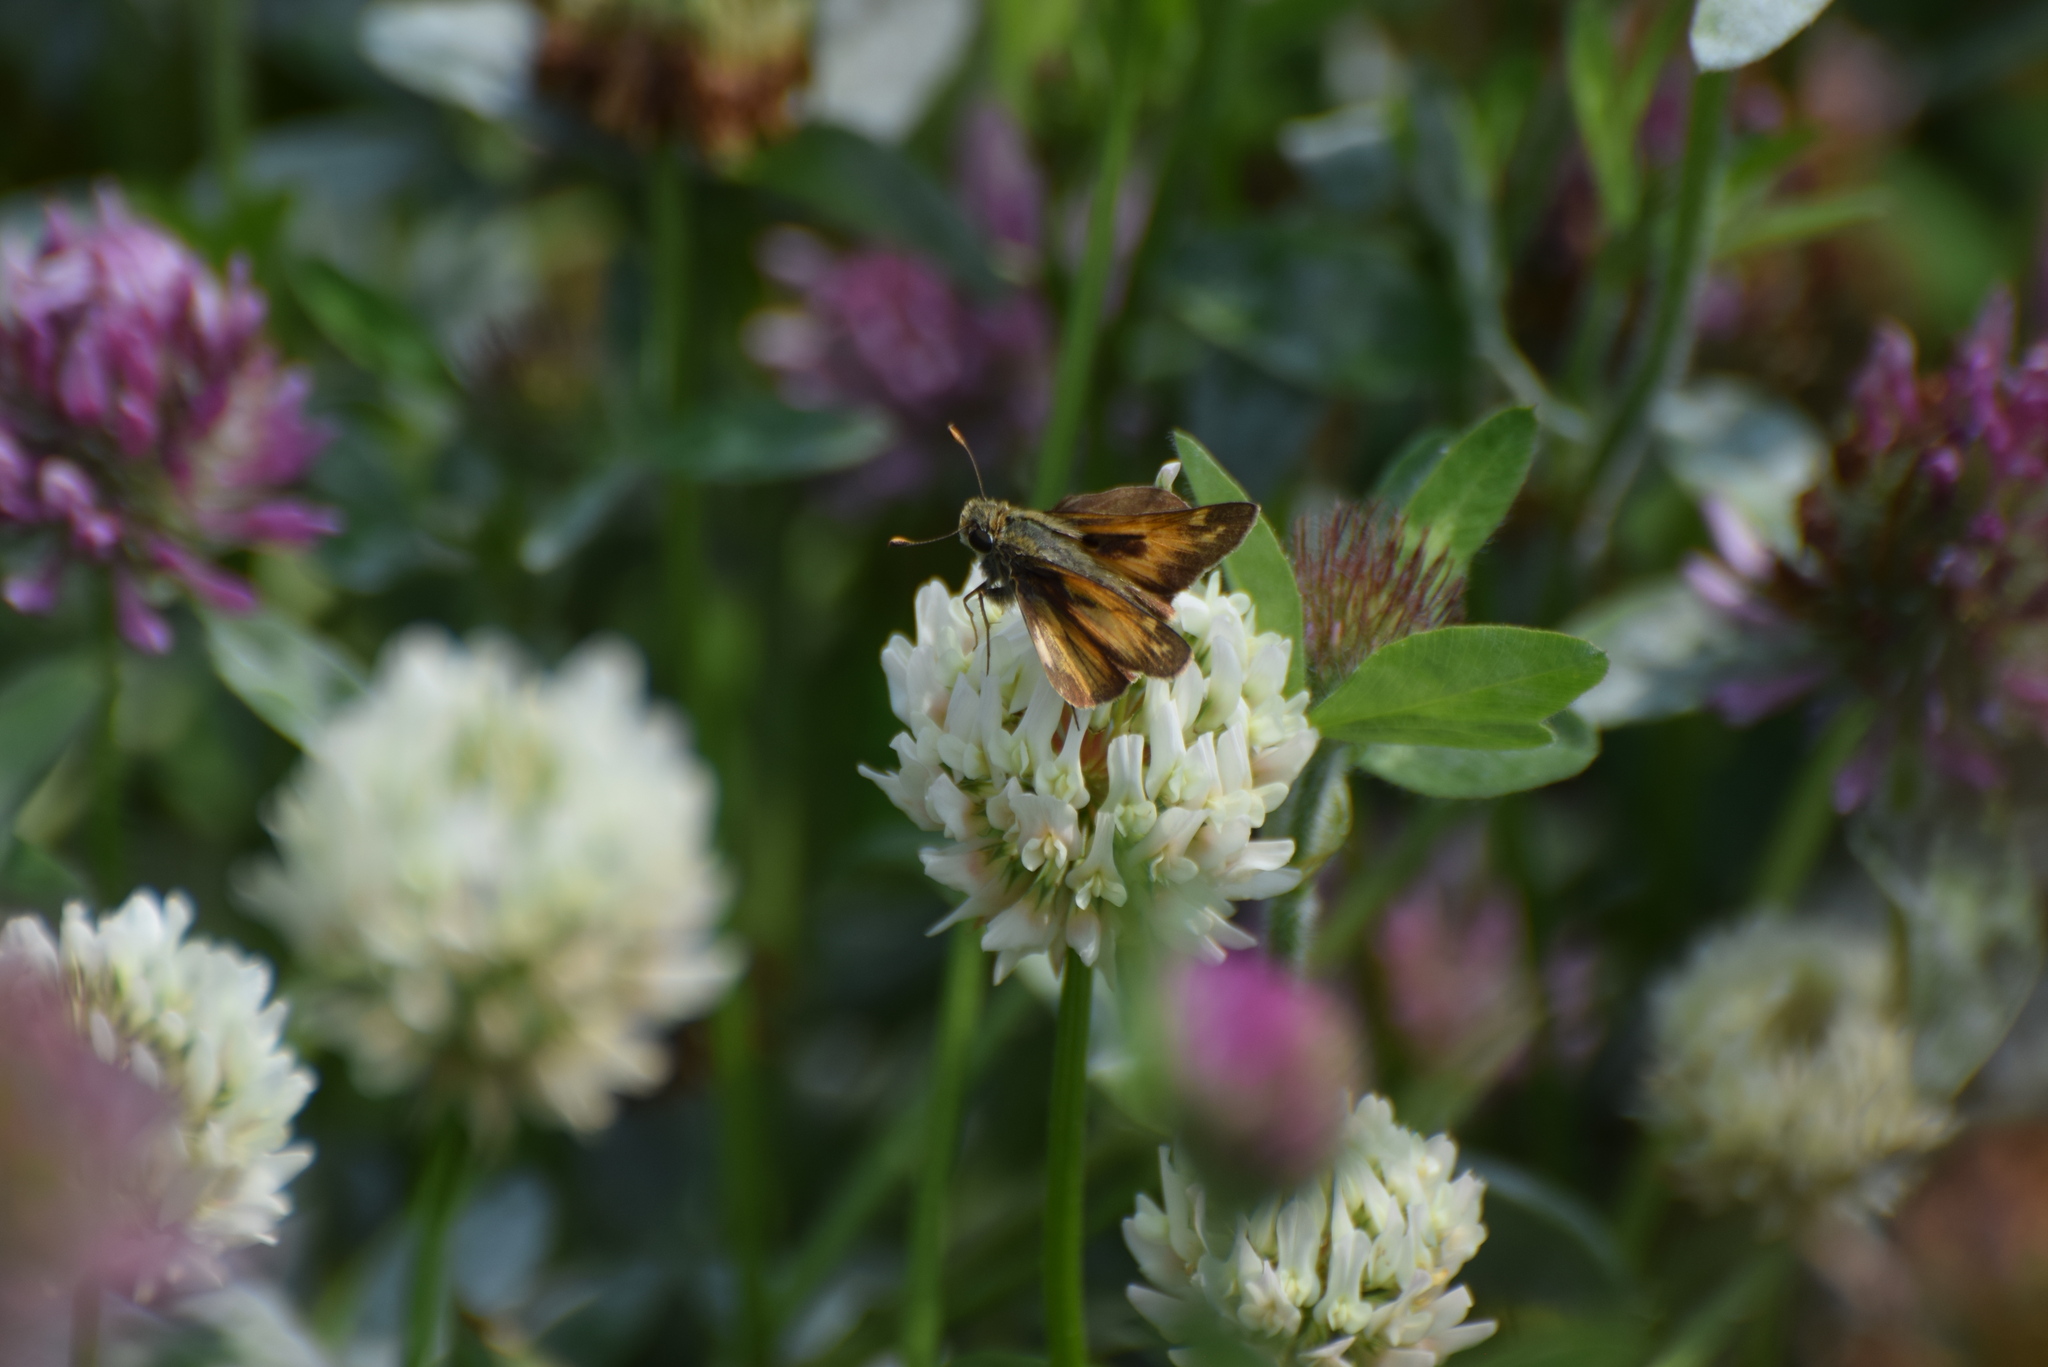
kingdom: Animalia
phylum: Arthropoda
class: Insecta
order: Lepidoptera
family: Hesperiidae
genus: Atalopedes
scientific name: Atalopedes
